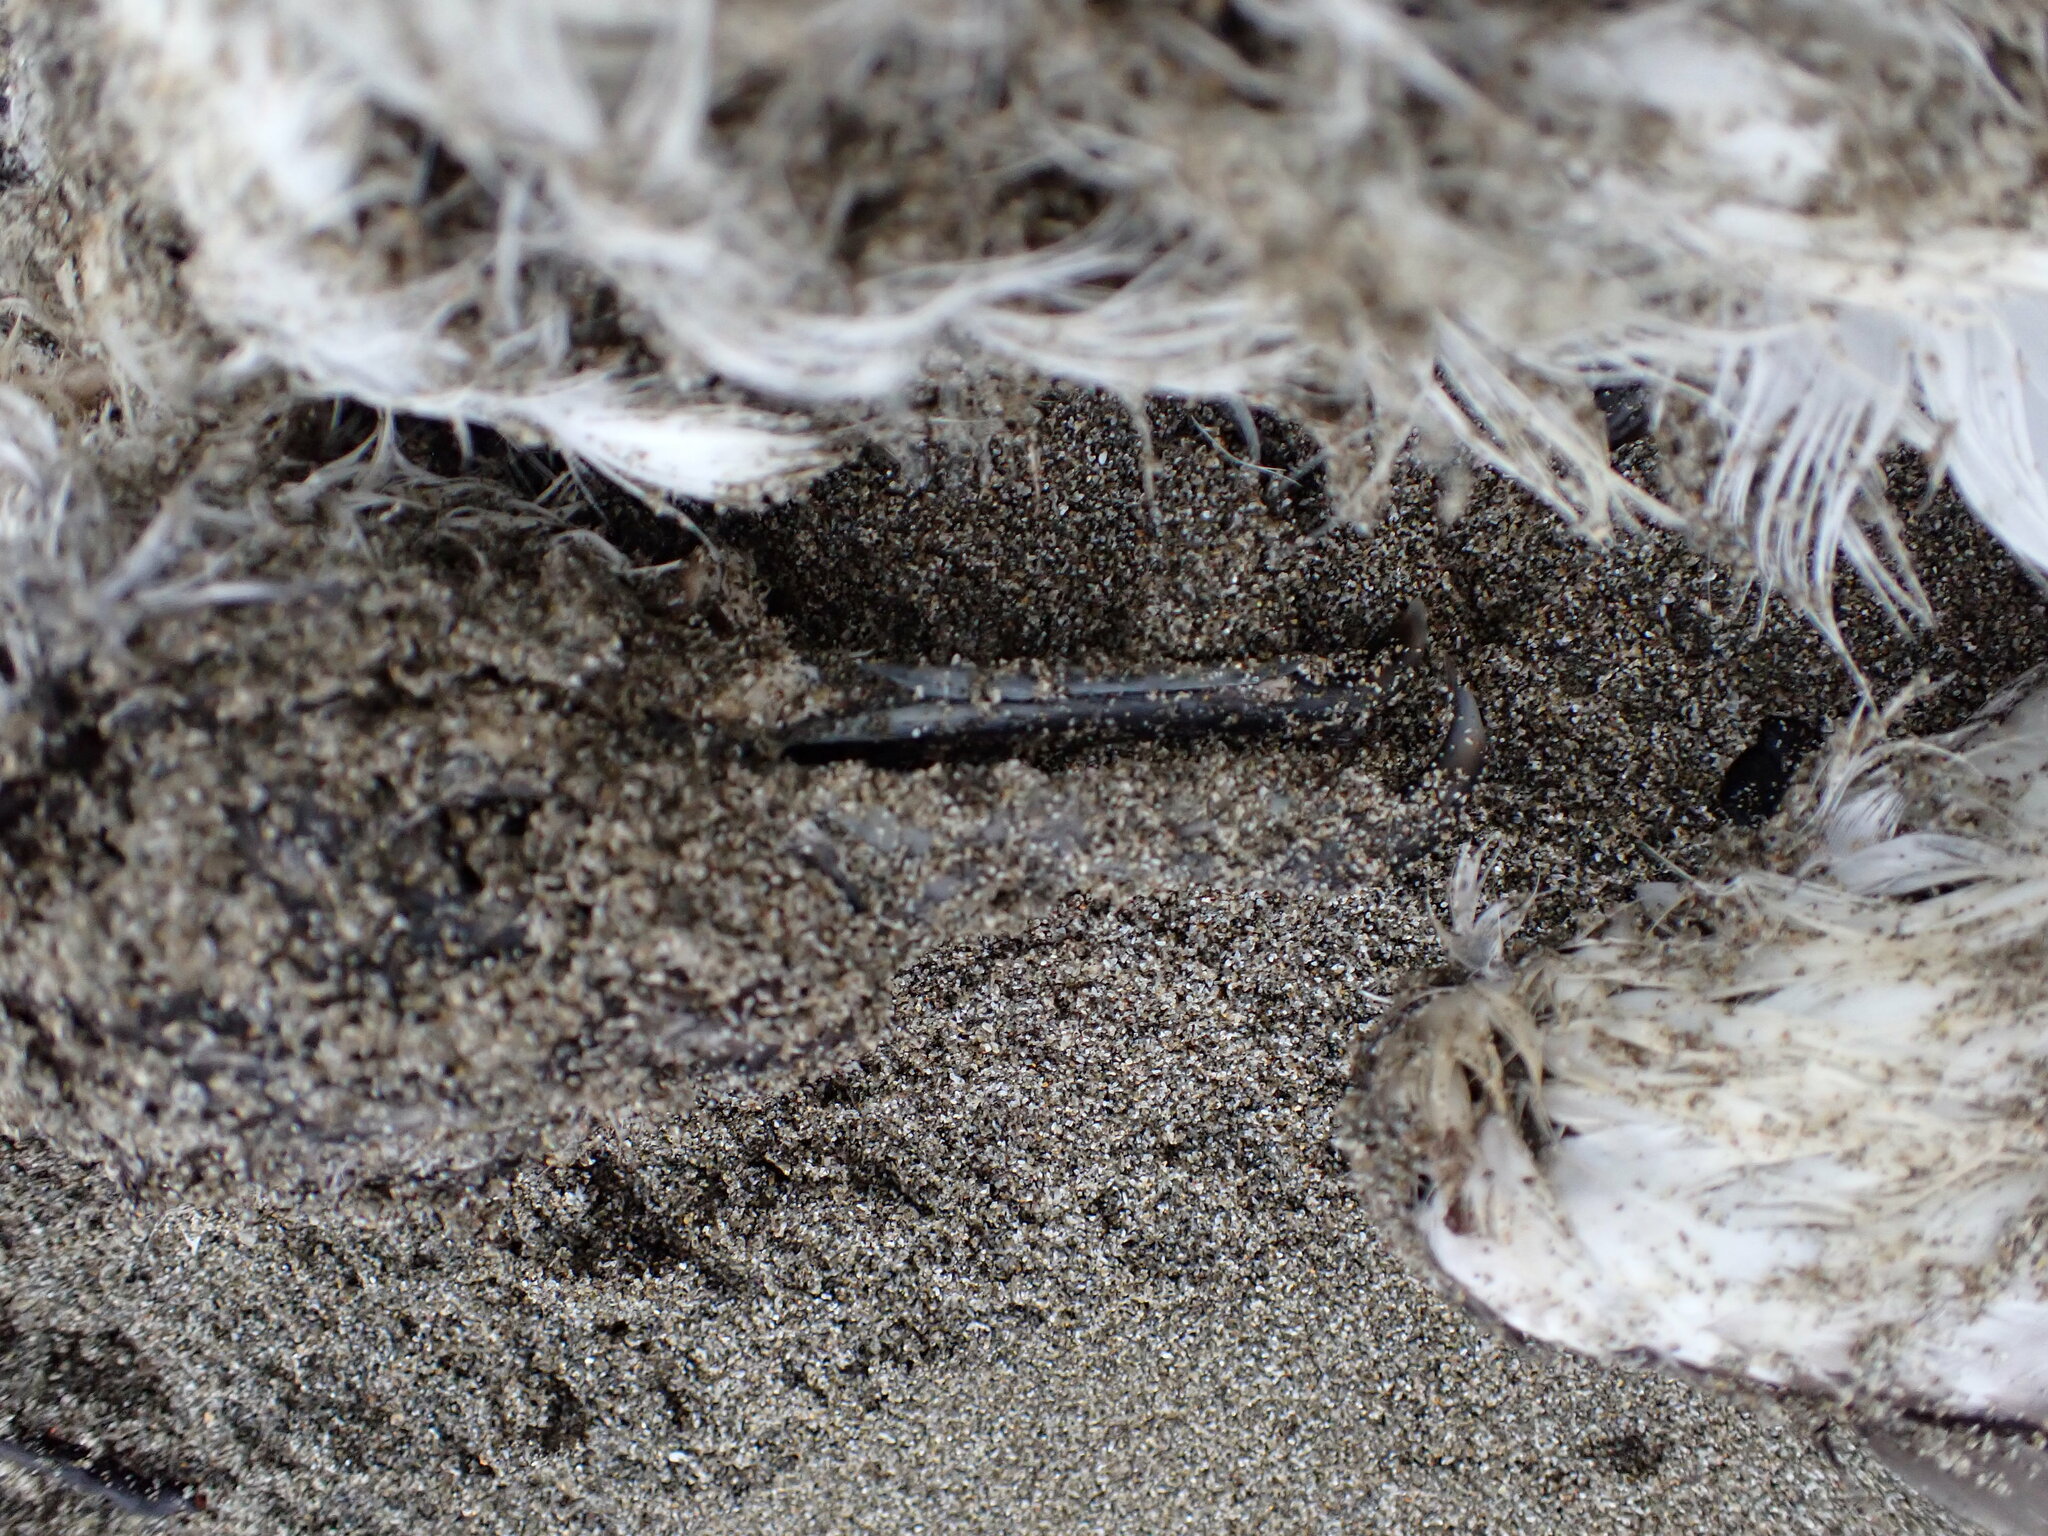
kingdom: Animalia
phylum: Chordata
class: Aves
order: Procellariiformes
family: Procellariidae
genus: Puffinus
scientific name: Puffinus bulleri
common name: Buller's shearwater
